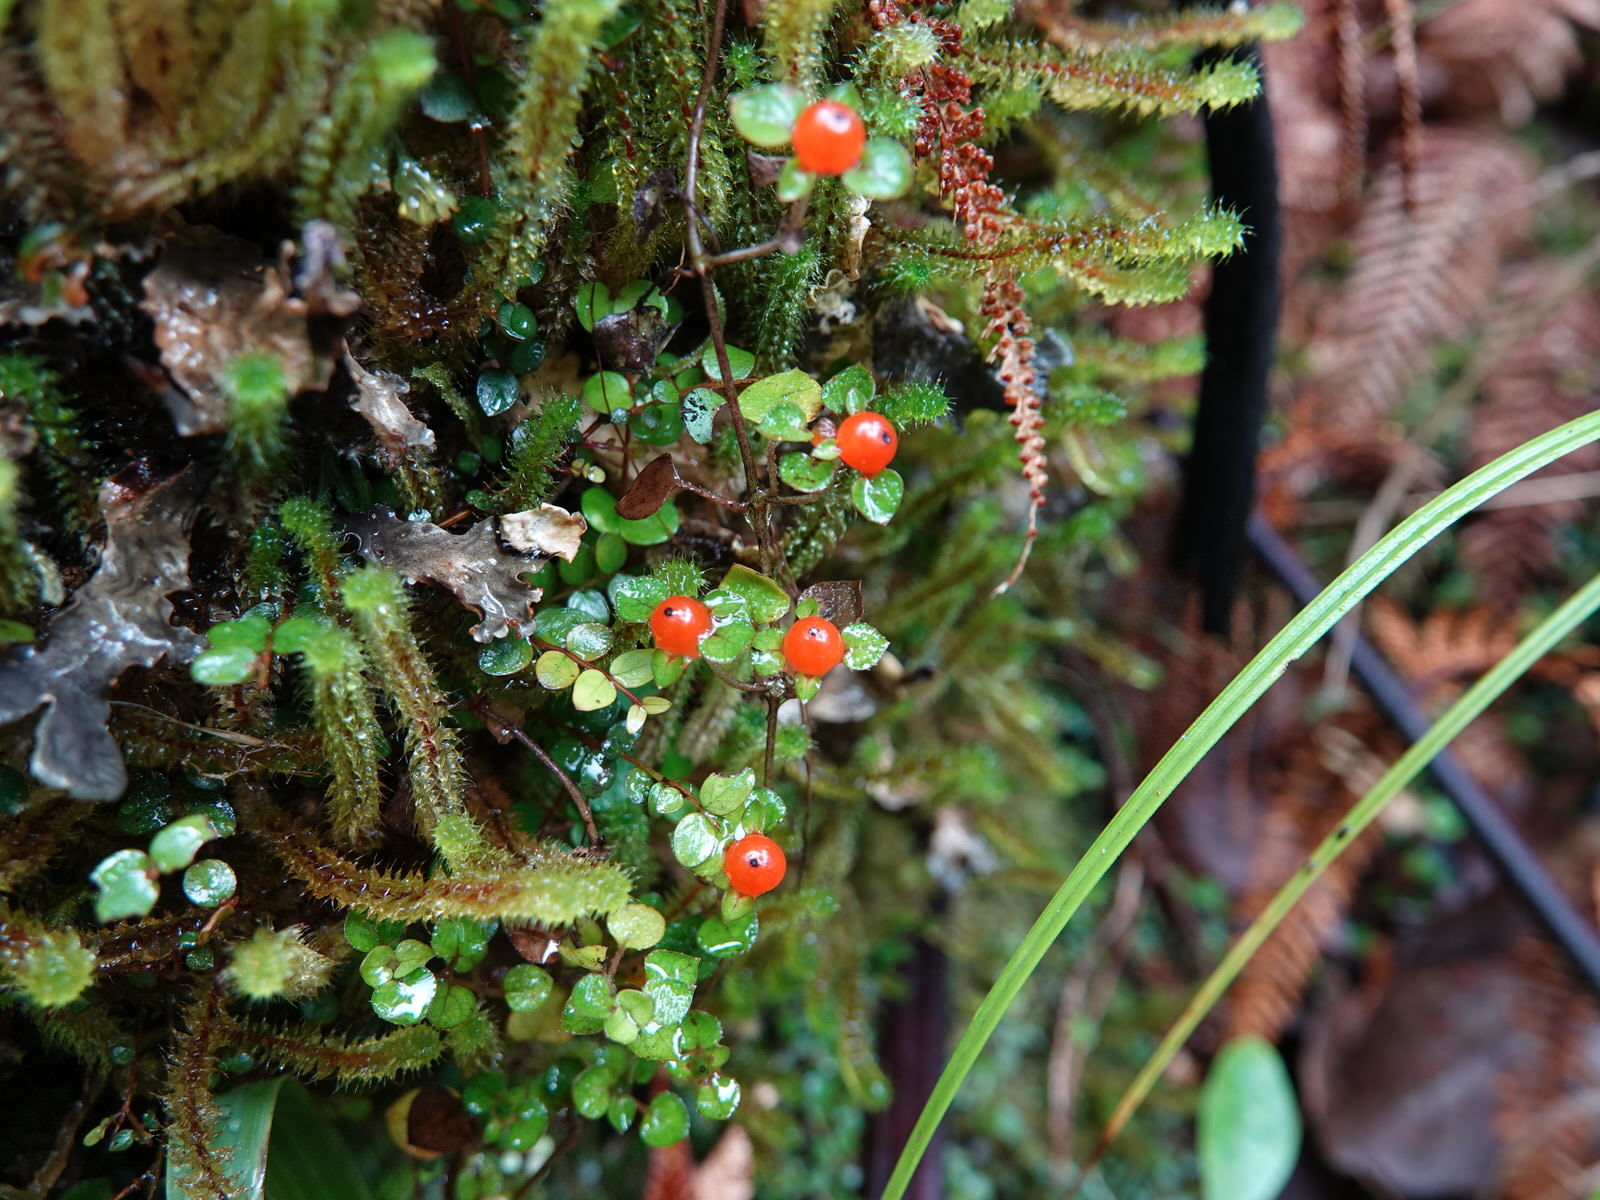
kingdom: Plantae
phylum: Tracheophyta
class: Magnoliopsida
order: Gentianales
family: Rubiaceae
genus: Nertera
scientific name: Nertera dichondrifolia
